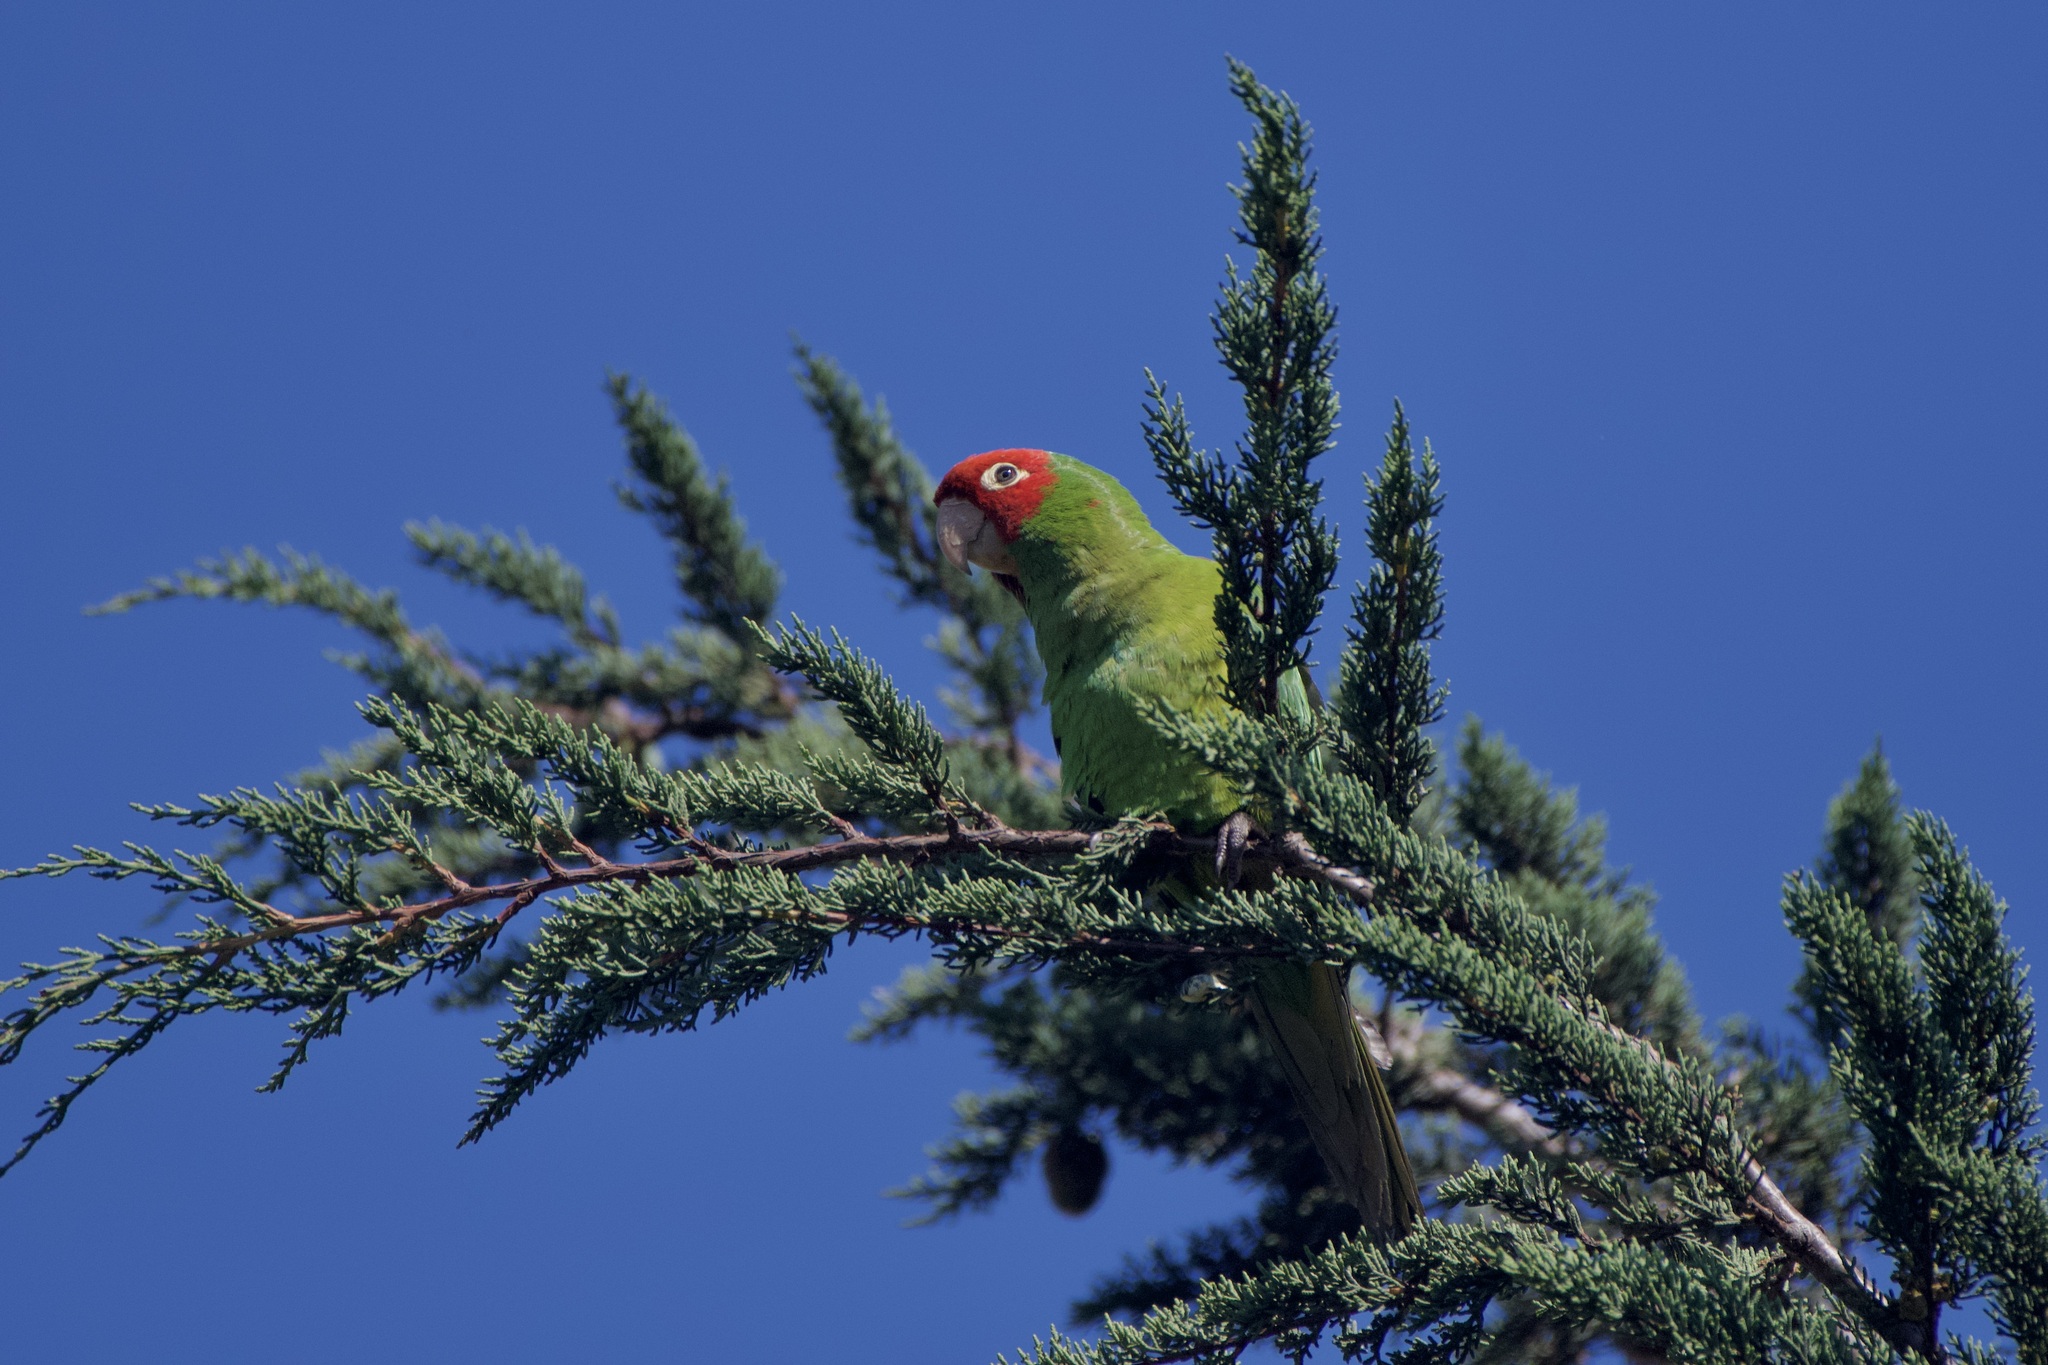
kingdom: Animalia
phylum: Chordata
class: Aves
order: Psittaciformes
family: Psittacidae
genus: Aratinga
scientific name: Aratinga erythrogenys
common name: Red-masked parakeet
